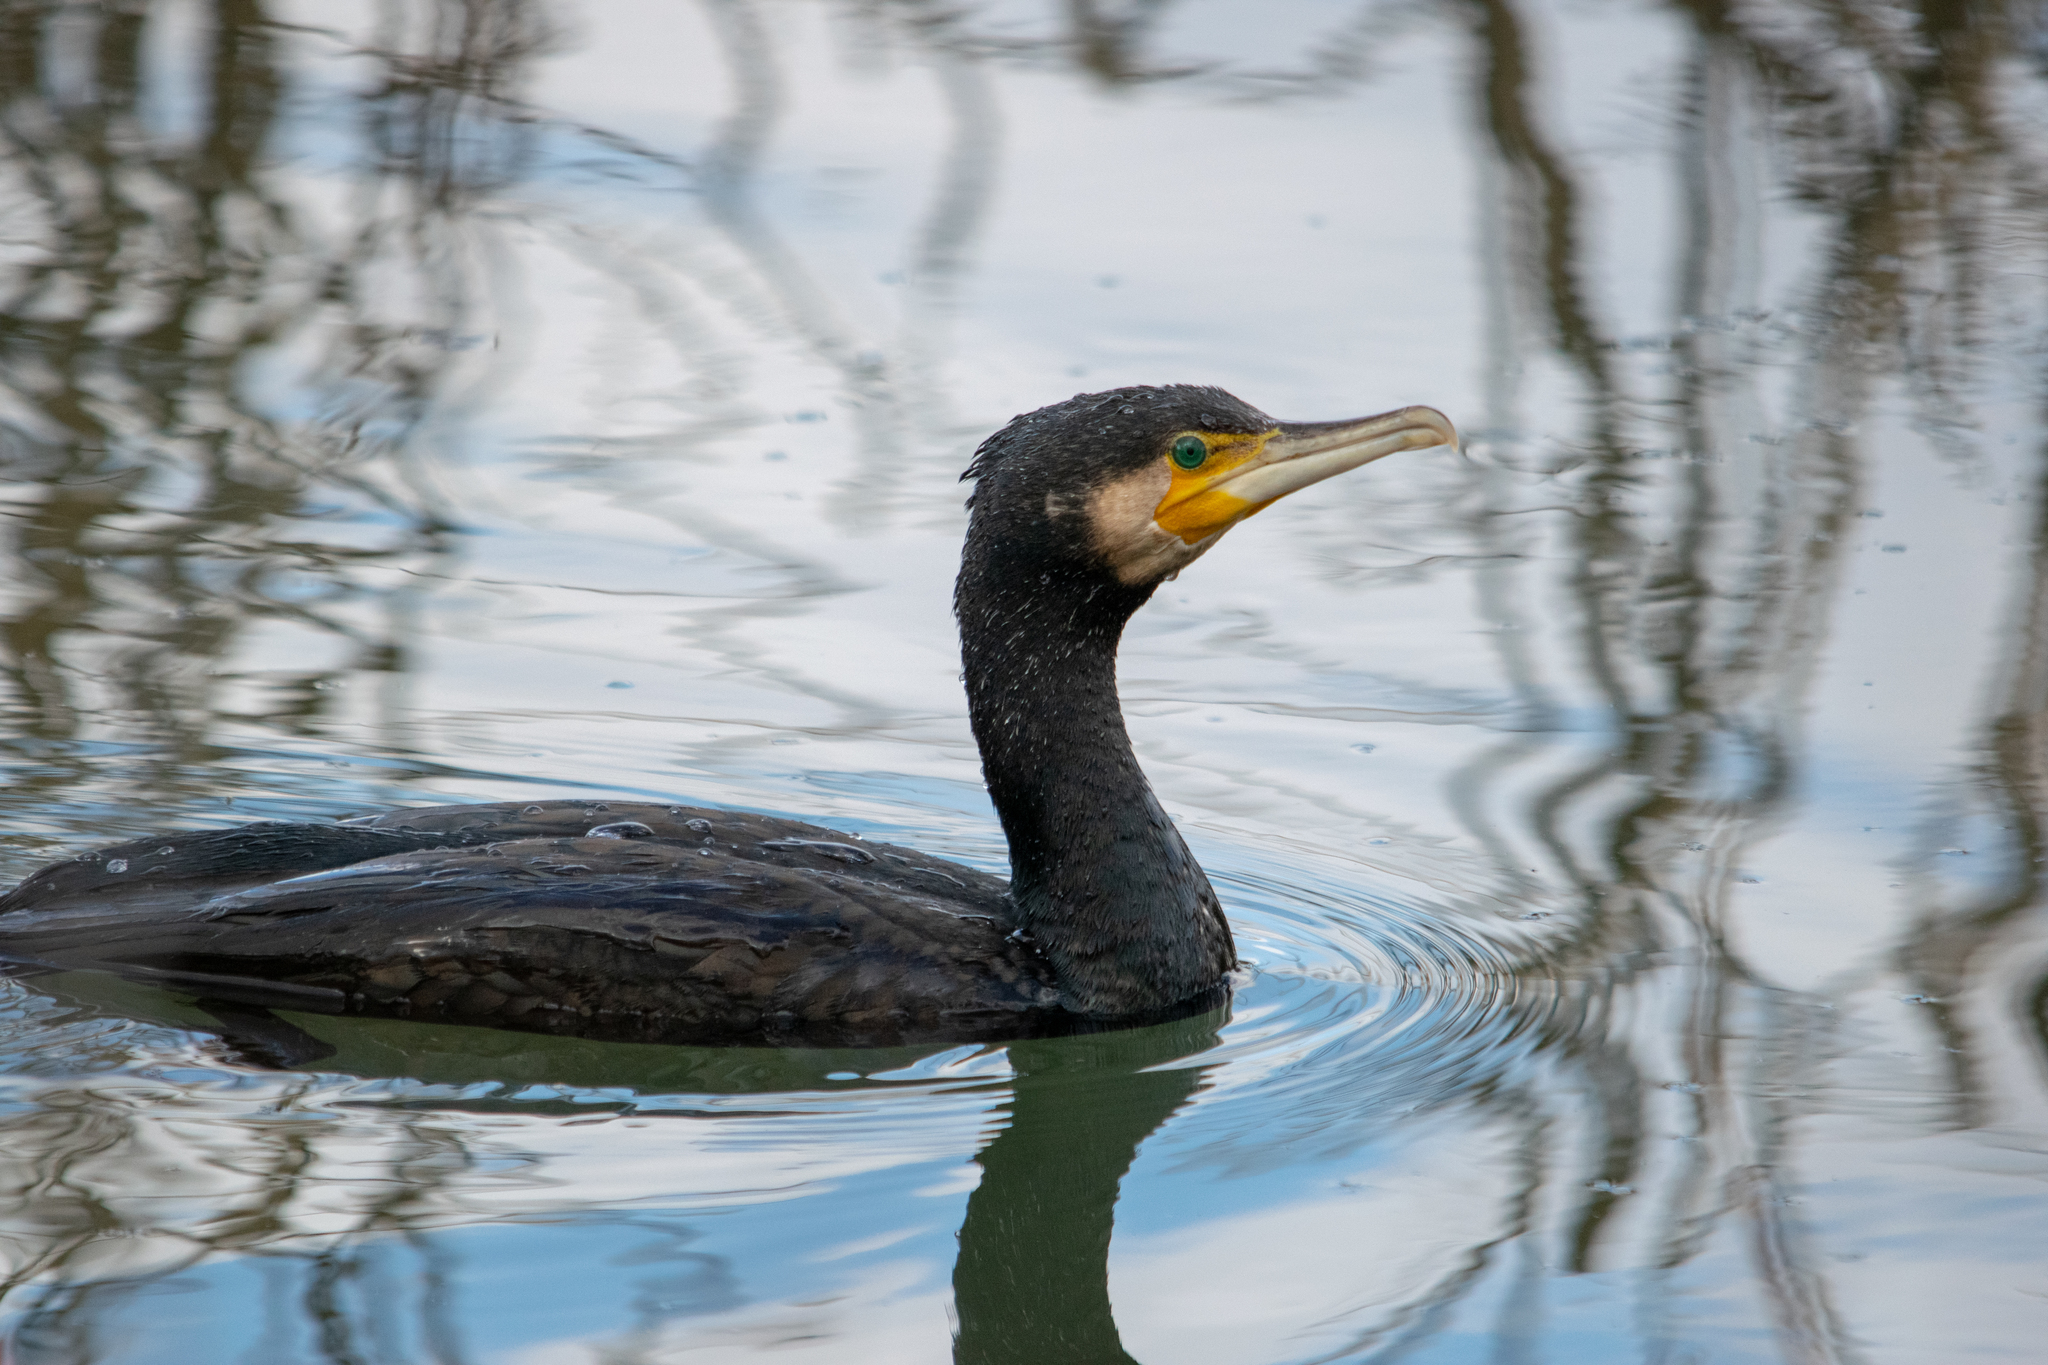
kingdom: Animalia
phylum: Chordata
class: Aves
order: Suliformes
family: Phalacrocoracidae
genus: Phalacrocorax
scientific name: Phalacrocorax carbo
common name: Great cormorant
